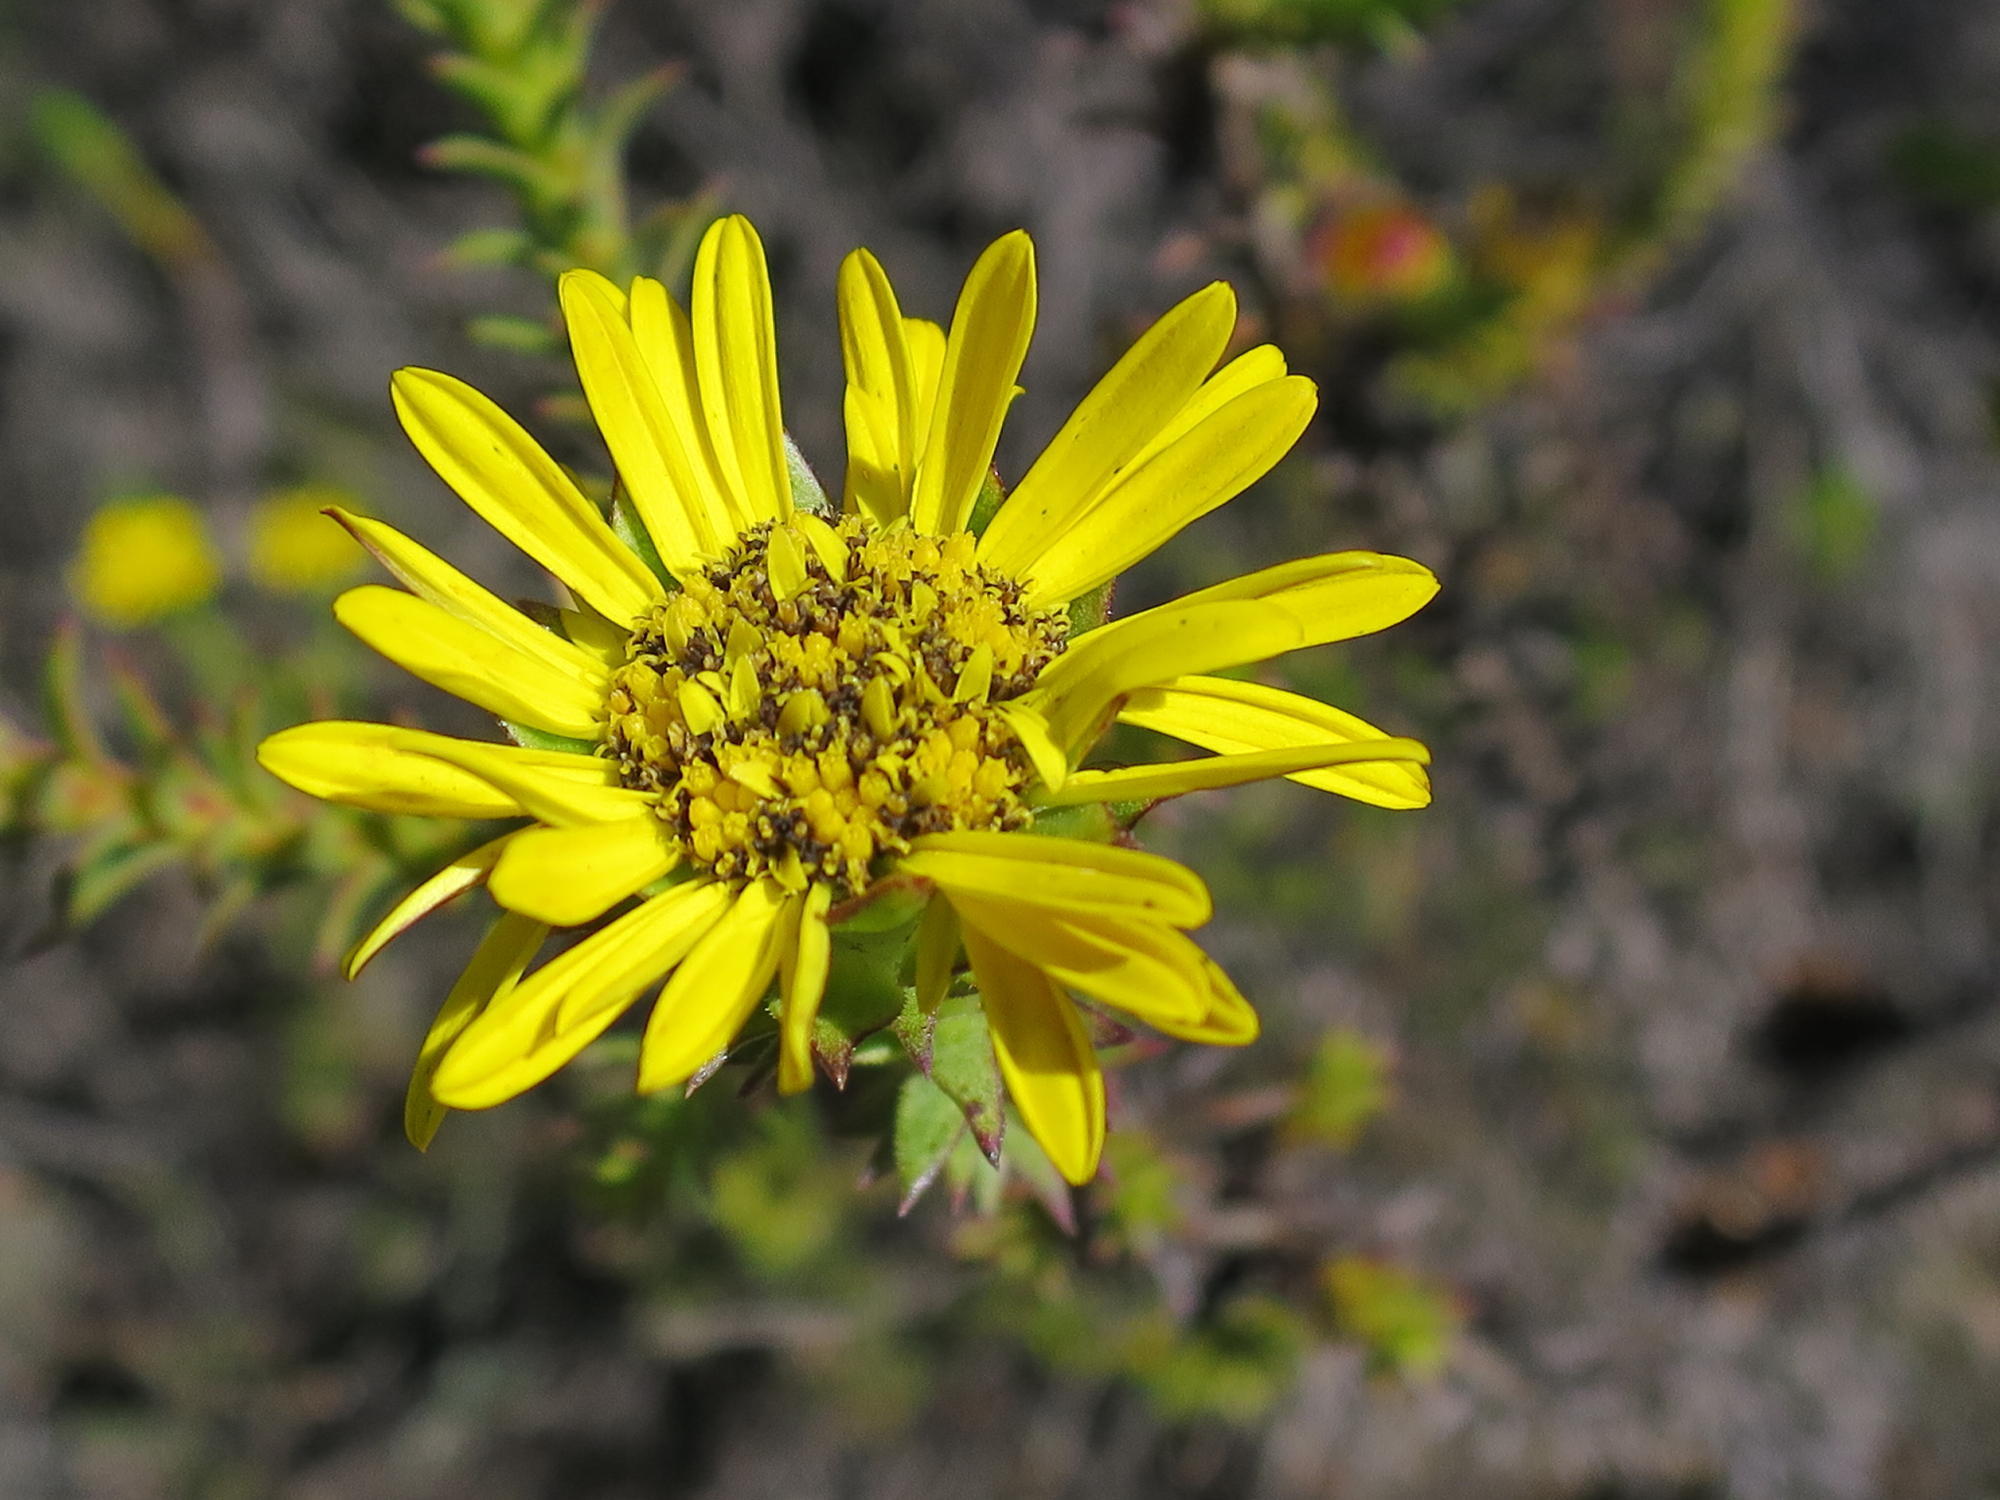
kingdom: Plantae
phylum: Tracheophyta
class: Magnoliopsida
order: Asterales
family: Asteraceae
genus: Oedera
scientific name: Oedera imbricata
